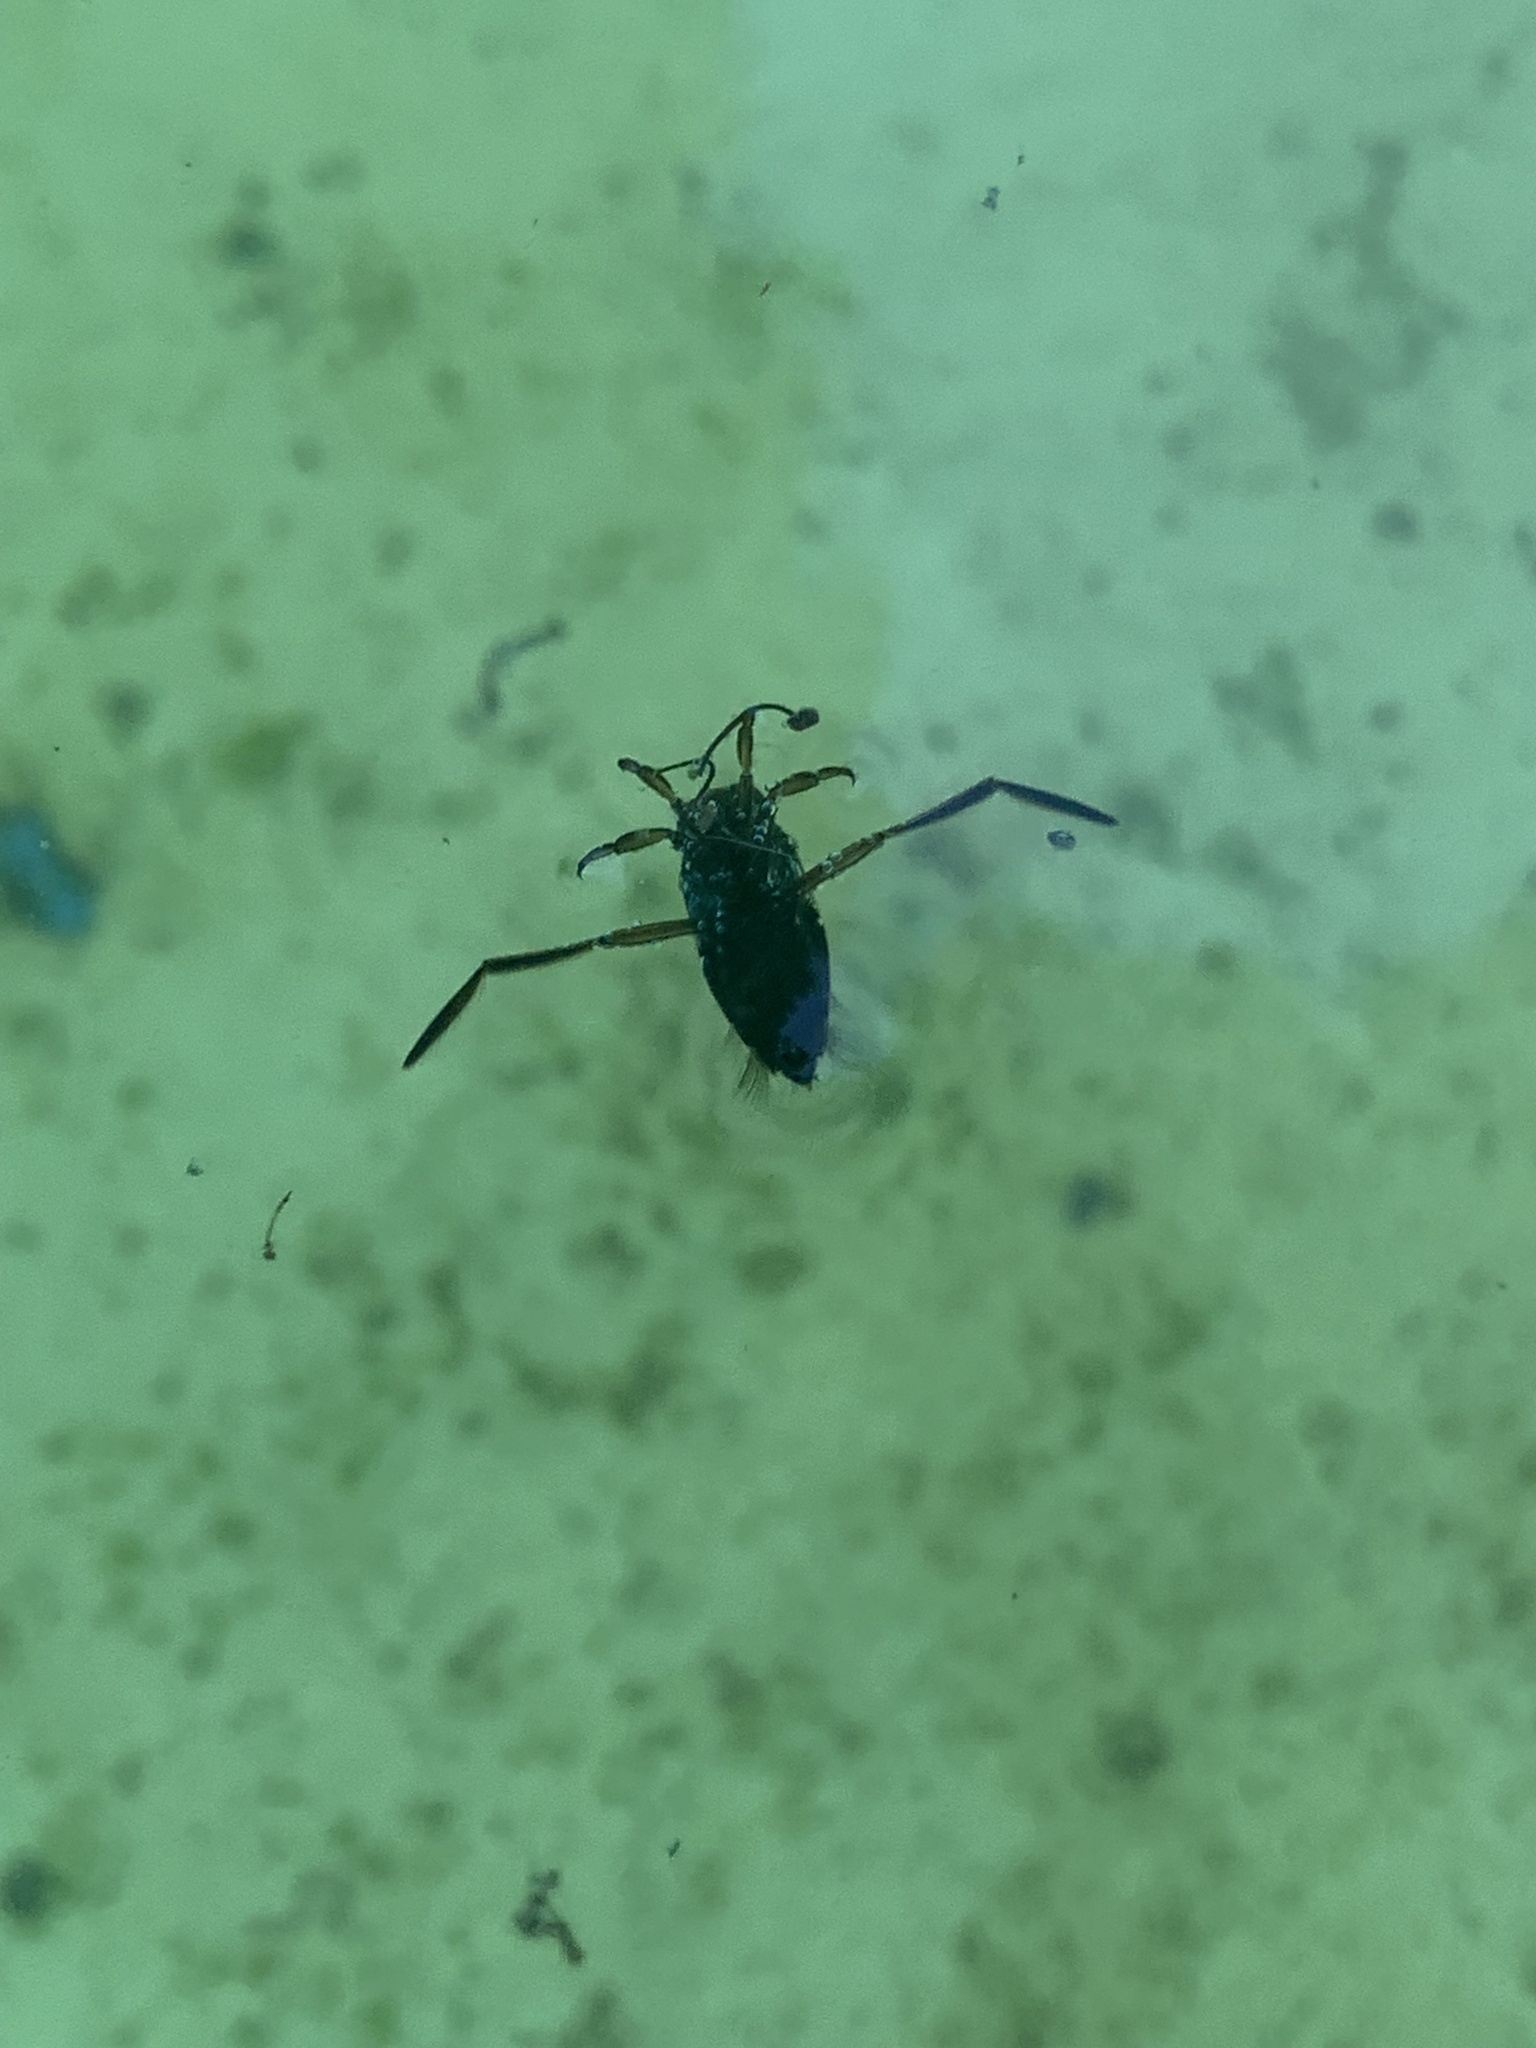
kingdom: Animalia
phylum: Arthropoda
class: Insecta
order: Hemiptera
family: Notonectidae
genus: Notonecta
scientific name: Notonecta
